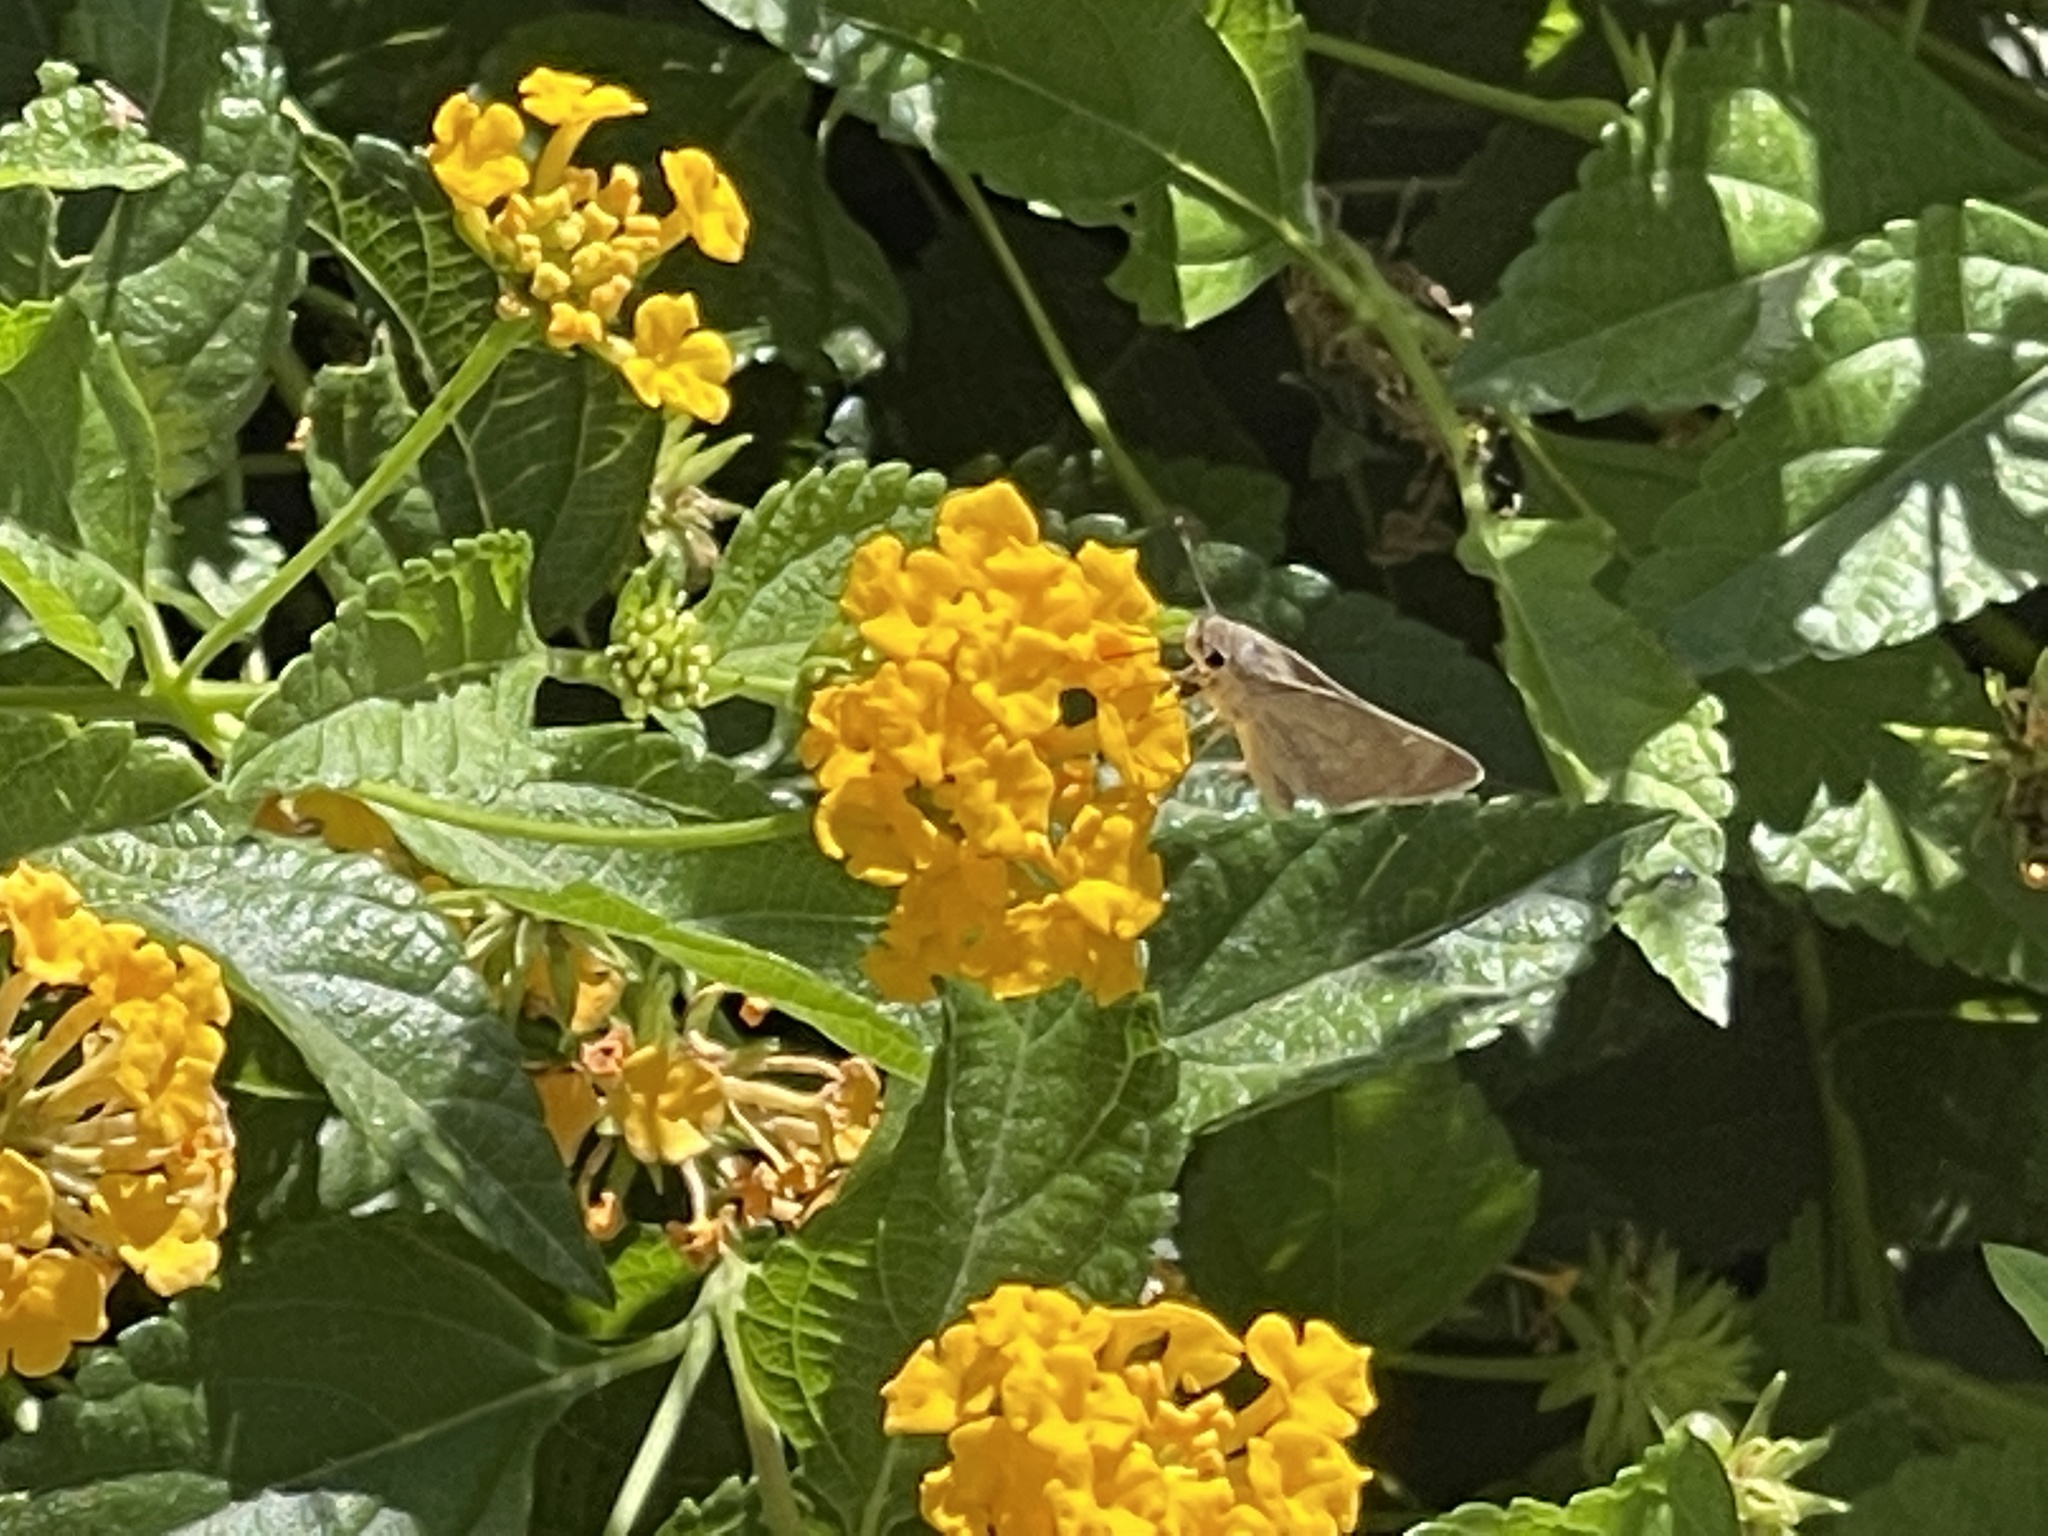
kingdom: Animalia
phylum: Arthropoda
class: Insecta
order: Lepidoptera
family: Hesperiidae
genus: Lerodea
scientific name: Lerodea eufala
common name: Eufala skipper
